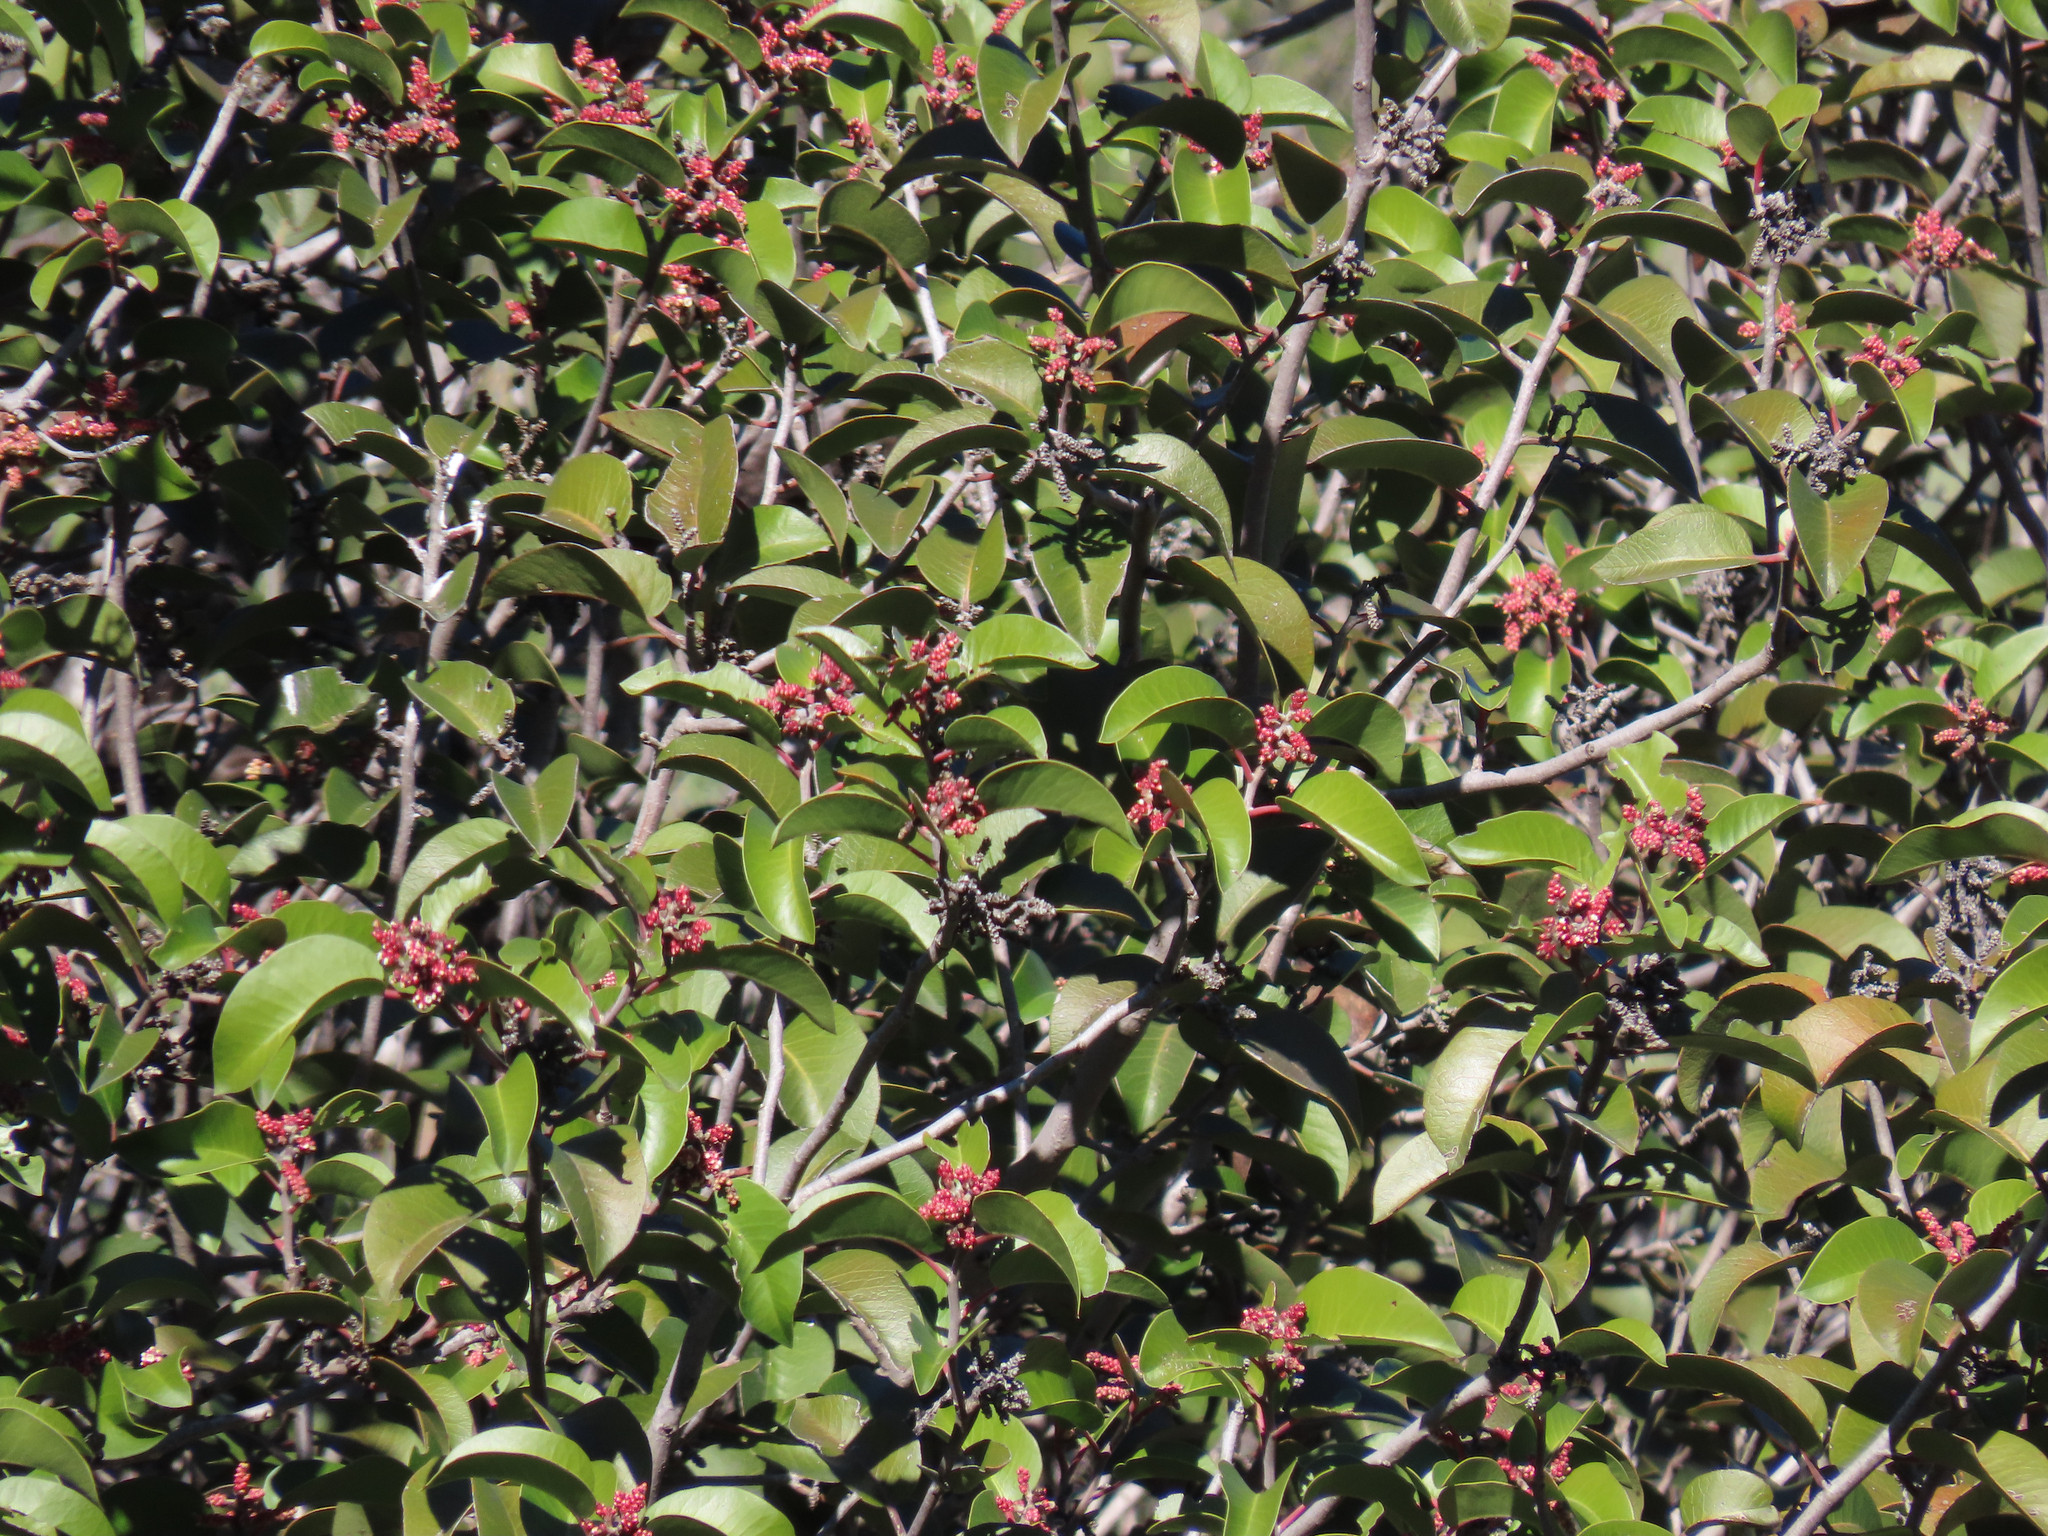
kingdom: Plantae
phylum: Tracheophyta
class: Magnoliopsida
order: Sapindales
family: Anacardiaceae
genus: Rhus
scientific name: Rhus ovata
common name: Sugar sumac
